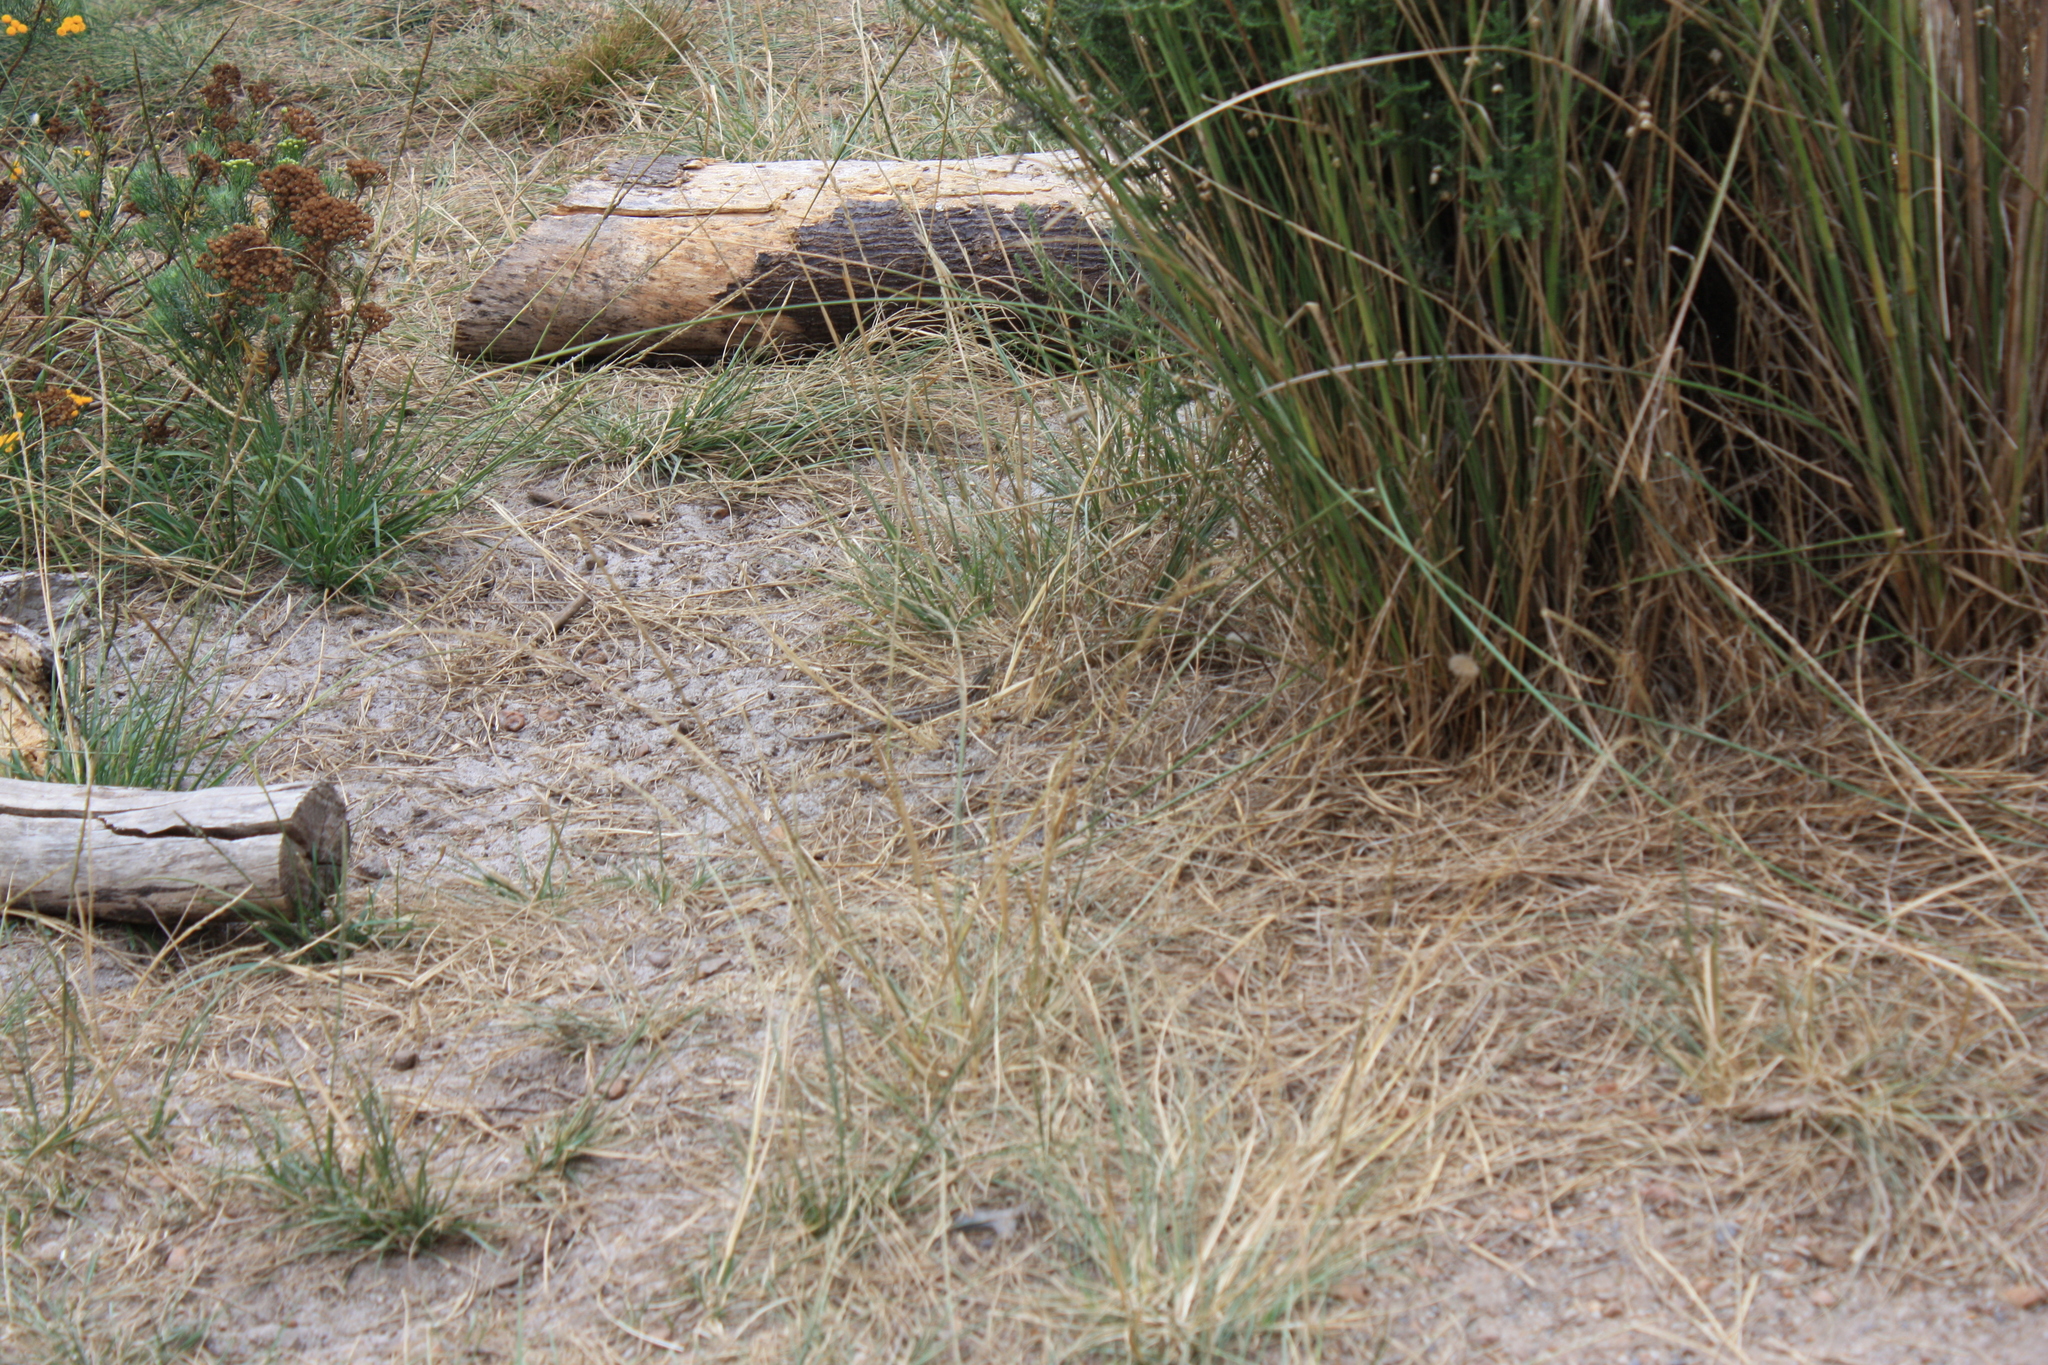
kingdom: Animalia
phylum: Chordata
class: Squamata
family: Scincidae
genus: Trachylepis
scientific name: Trachylepis capensis
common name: Cape skink
